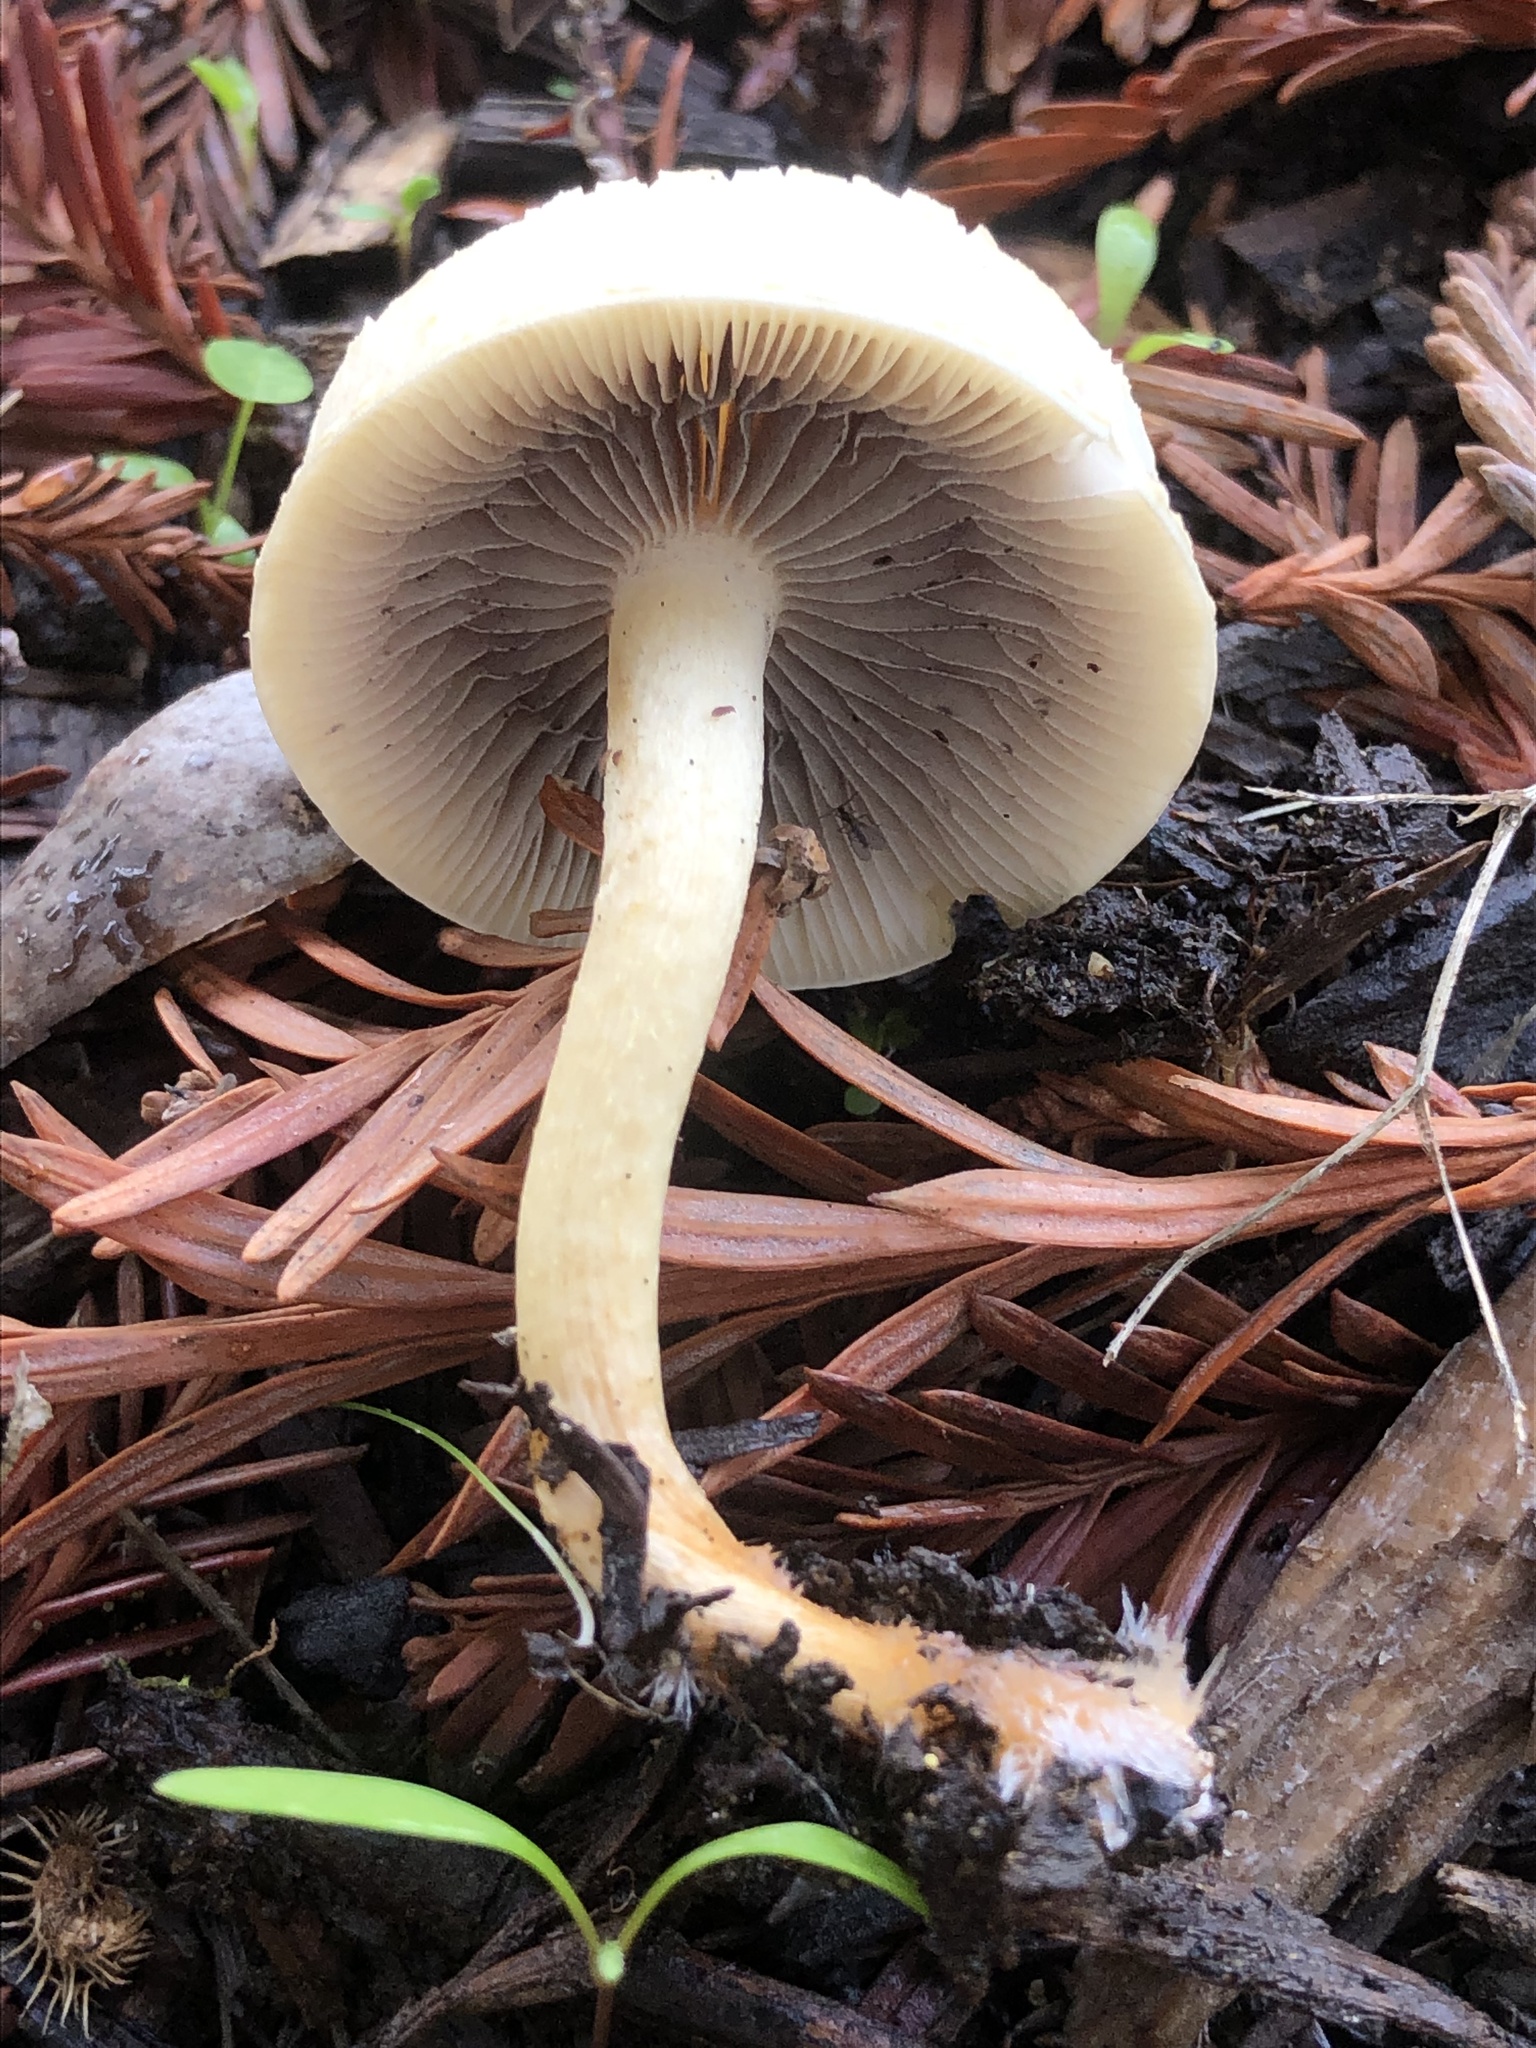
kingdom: Fungi
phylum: Basidiomycota
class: Agaricomycetes
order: Agaricales
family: Strophariaceae
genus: Leratiomyces
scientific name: Leratiomyces percevalii
